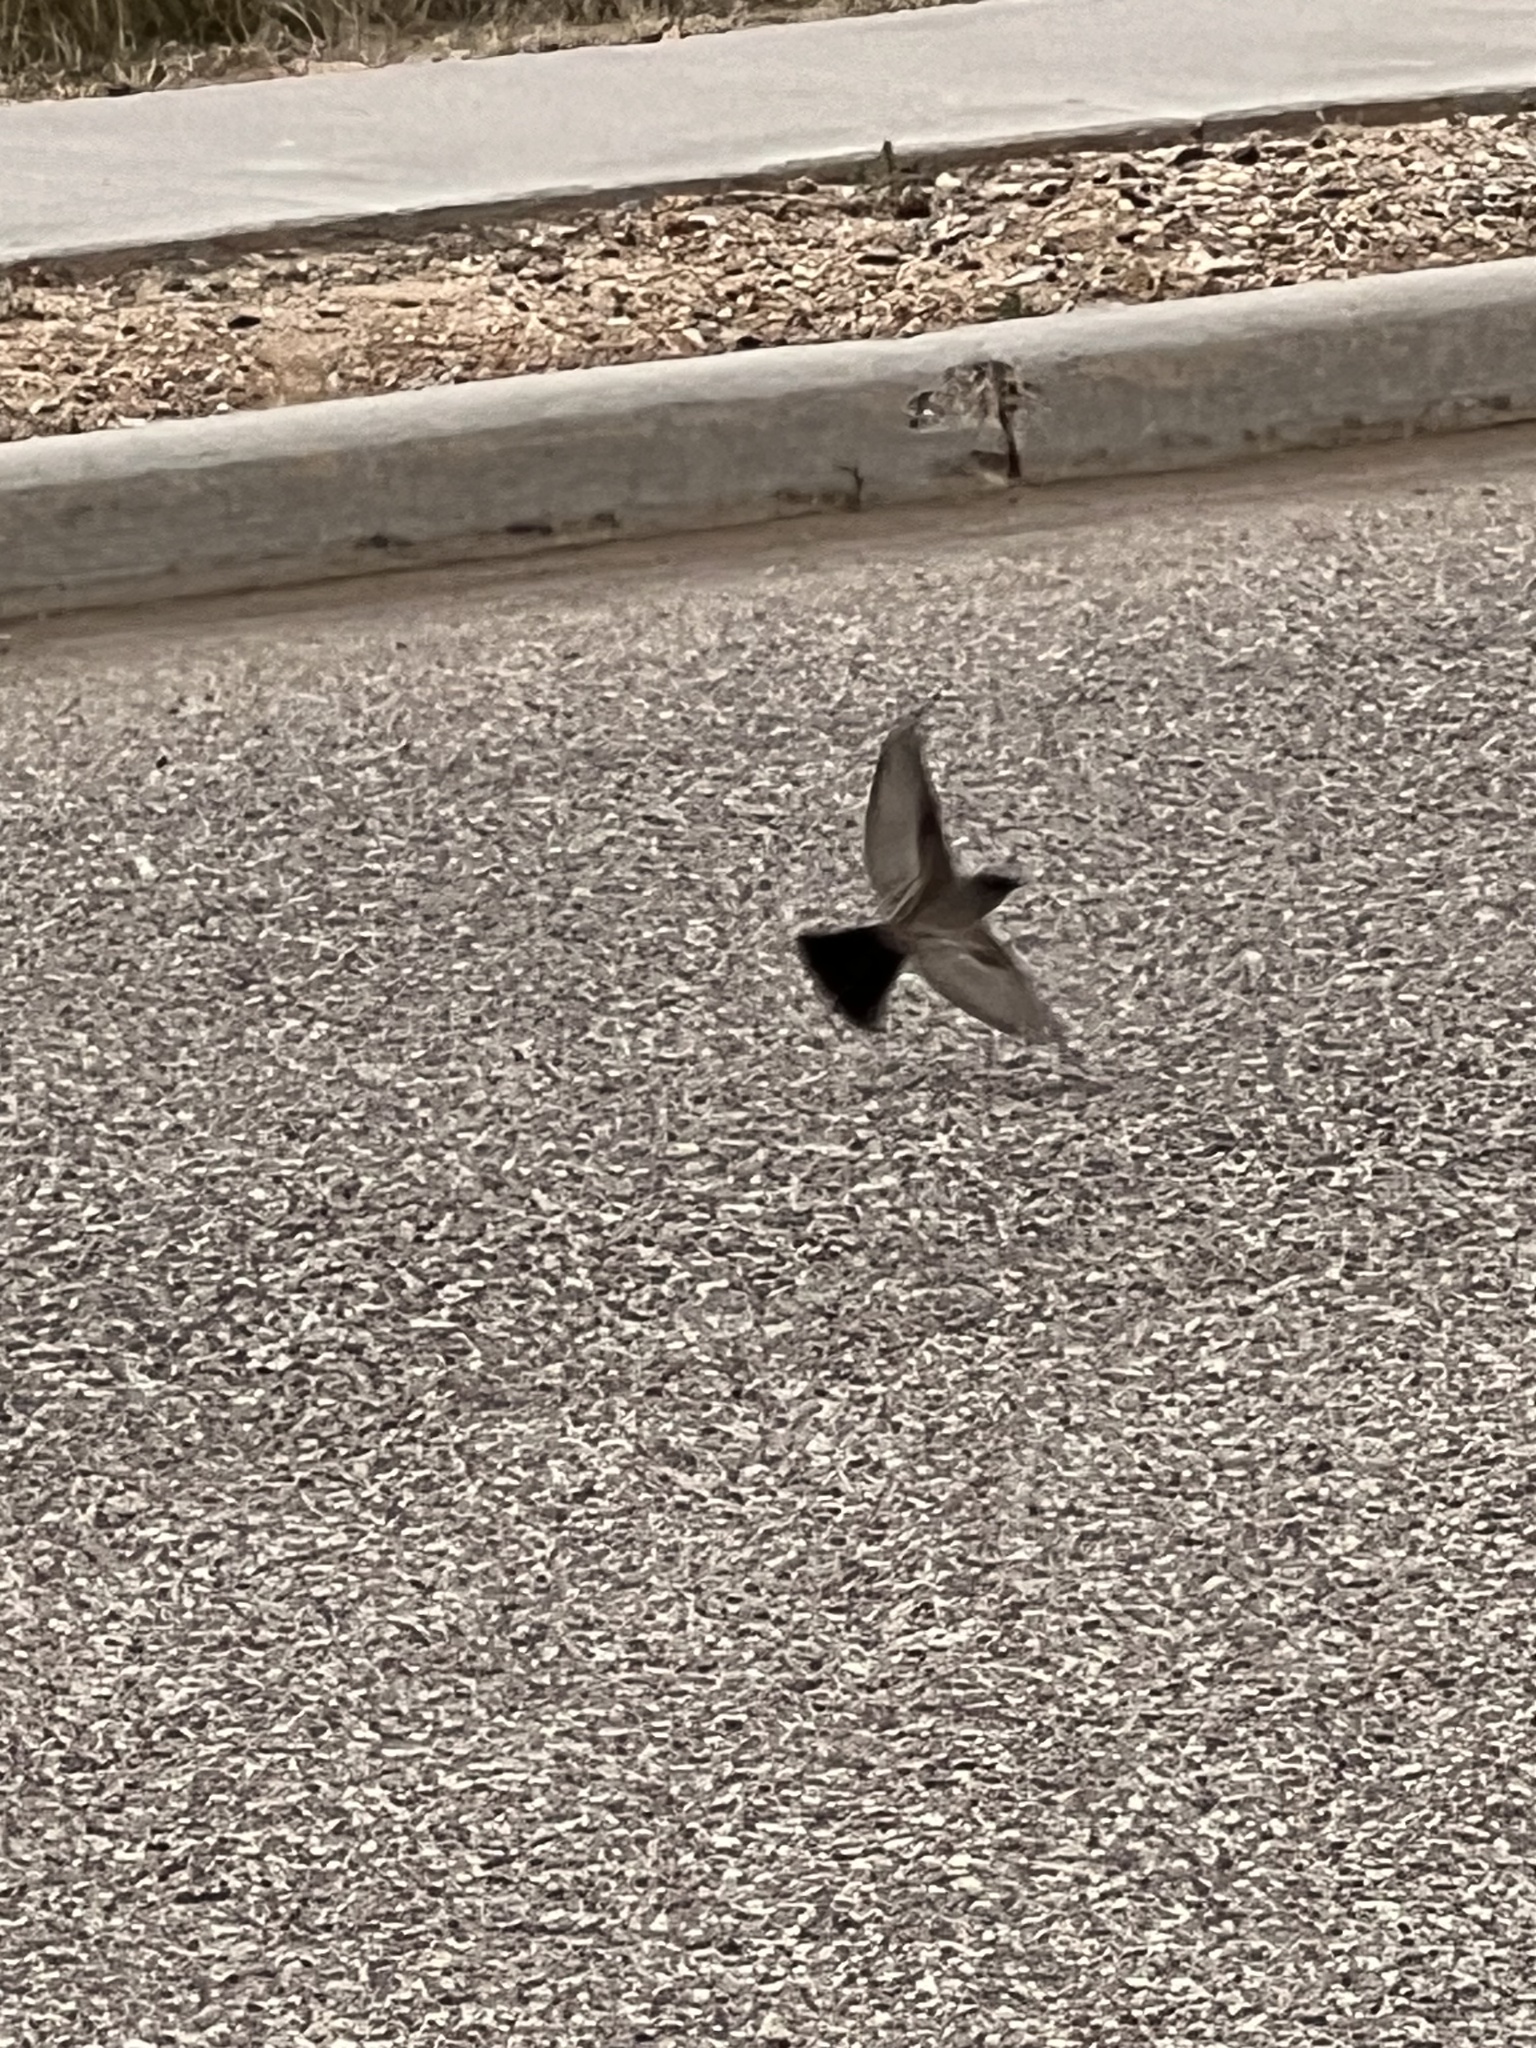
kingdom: Animalia
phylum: Chordata
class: Aves
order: Passeriformes
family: Tyrannidae
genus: Sayornis
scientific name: Sayornis saya
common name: Say's phoebe
